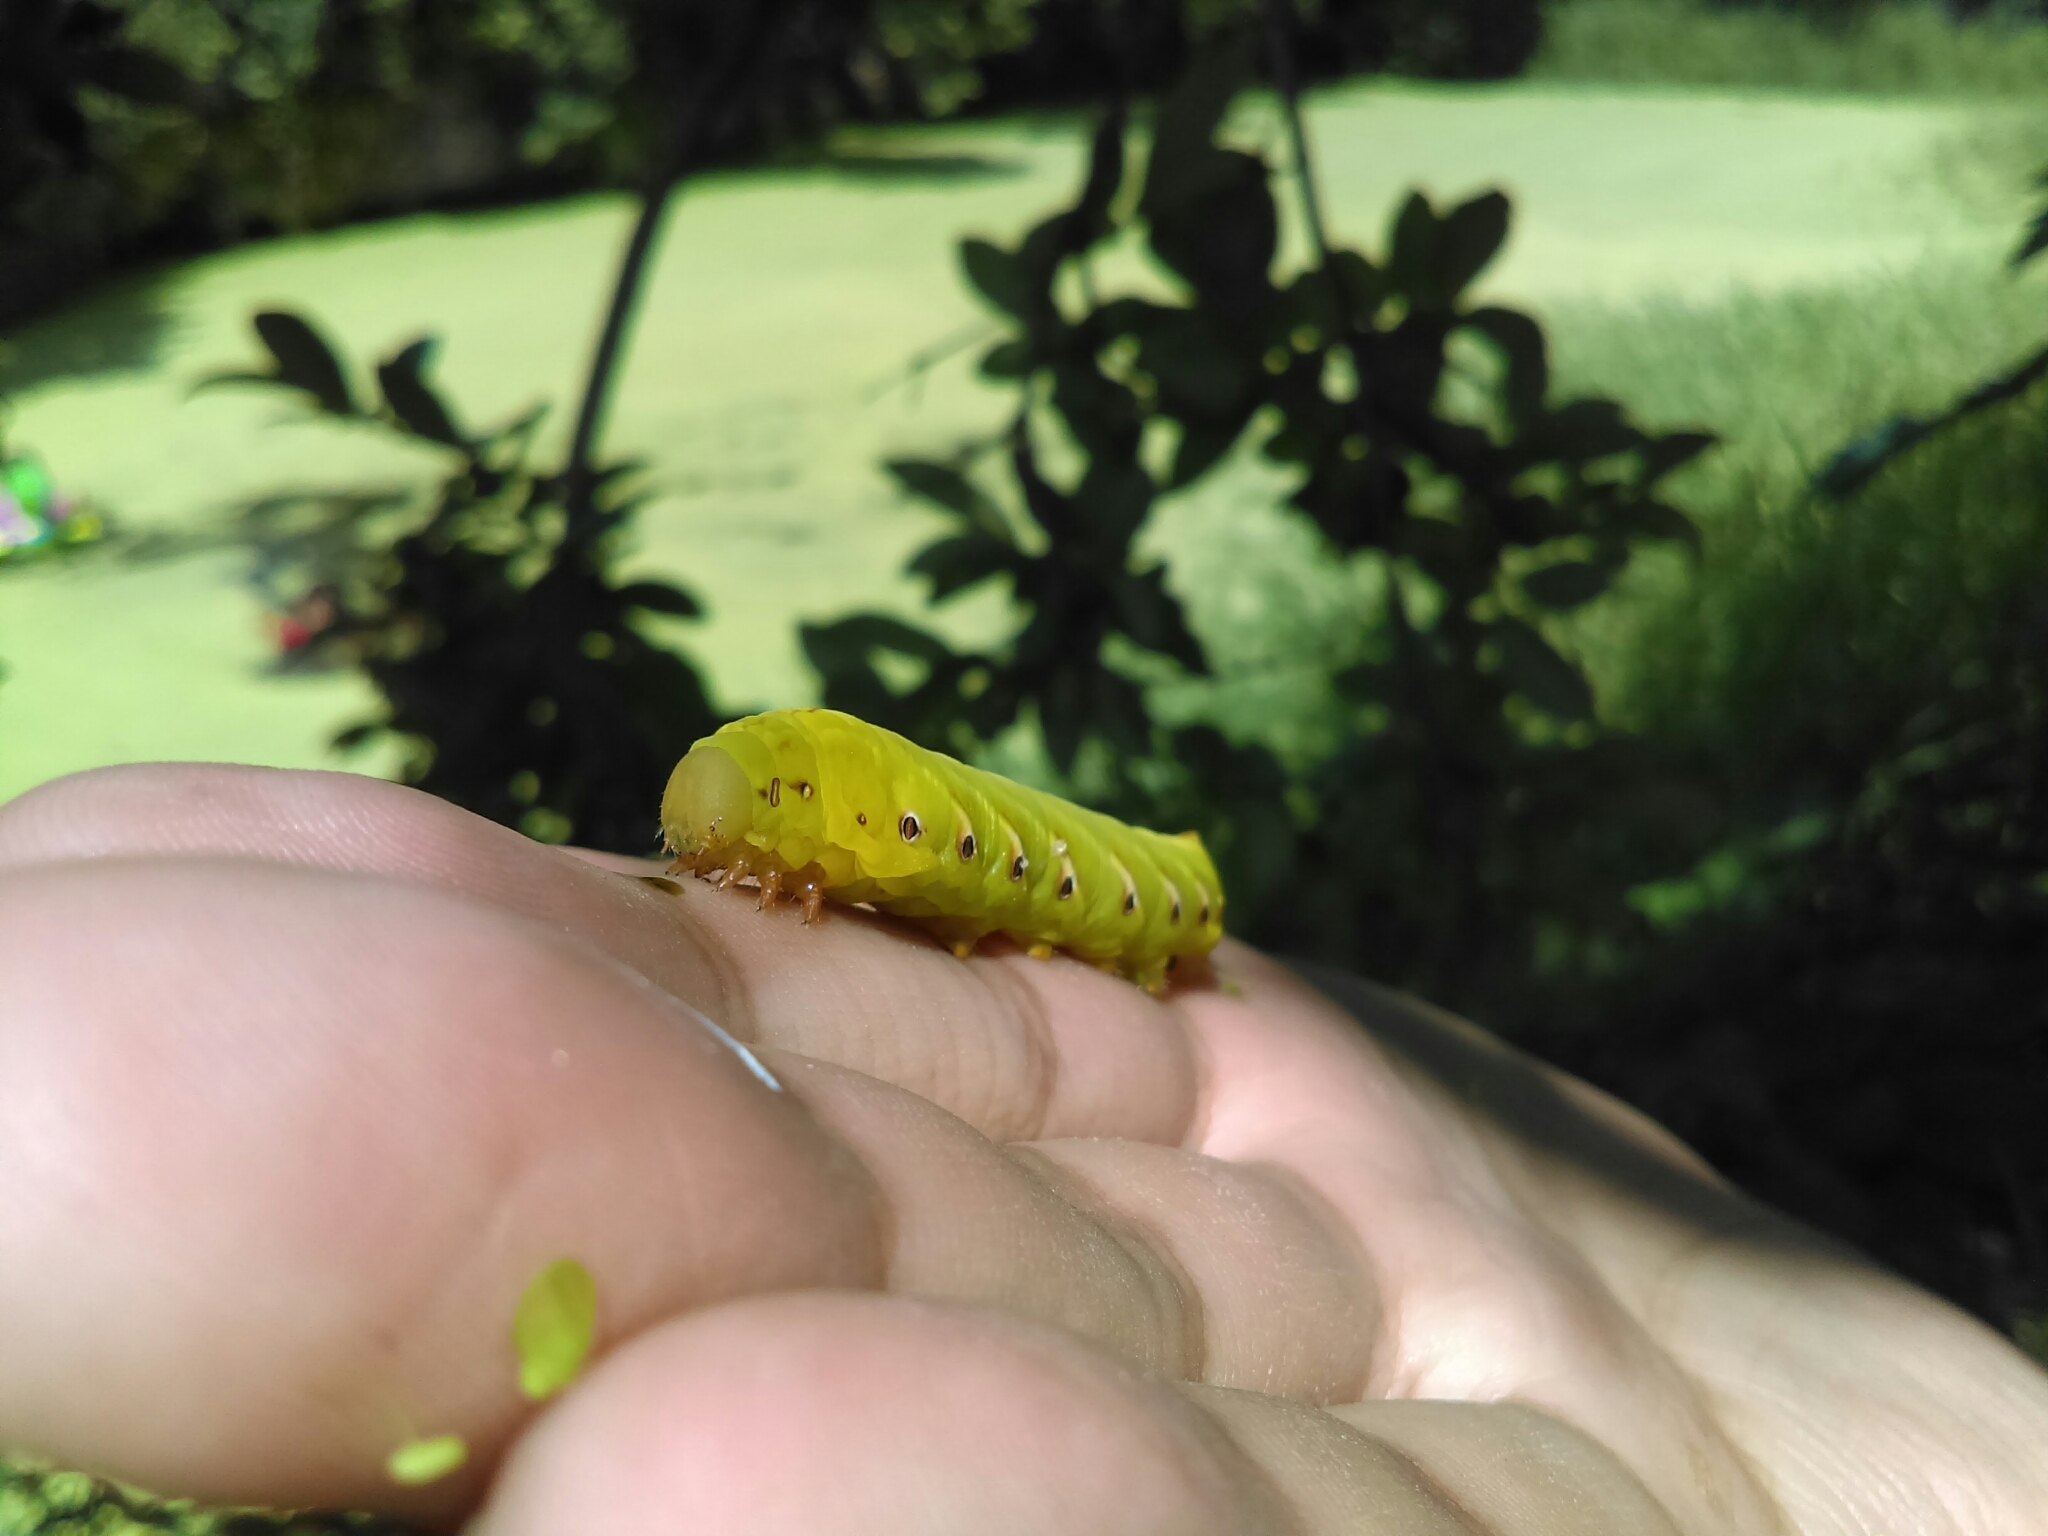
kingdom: Animalia
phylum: Arthropoda
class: Insecta
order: Lepidoptera
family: Sphingidae
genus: Eumorpha
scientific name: Eumorpha fasciatus
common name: Banded sphinx
